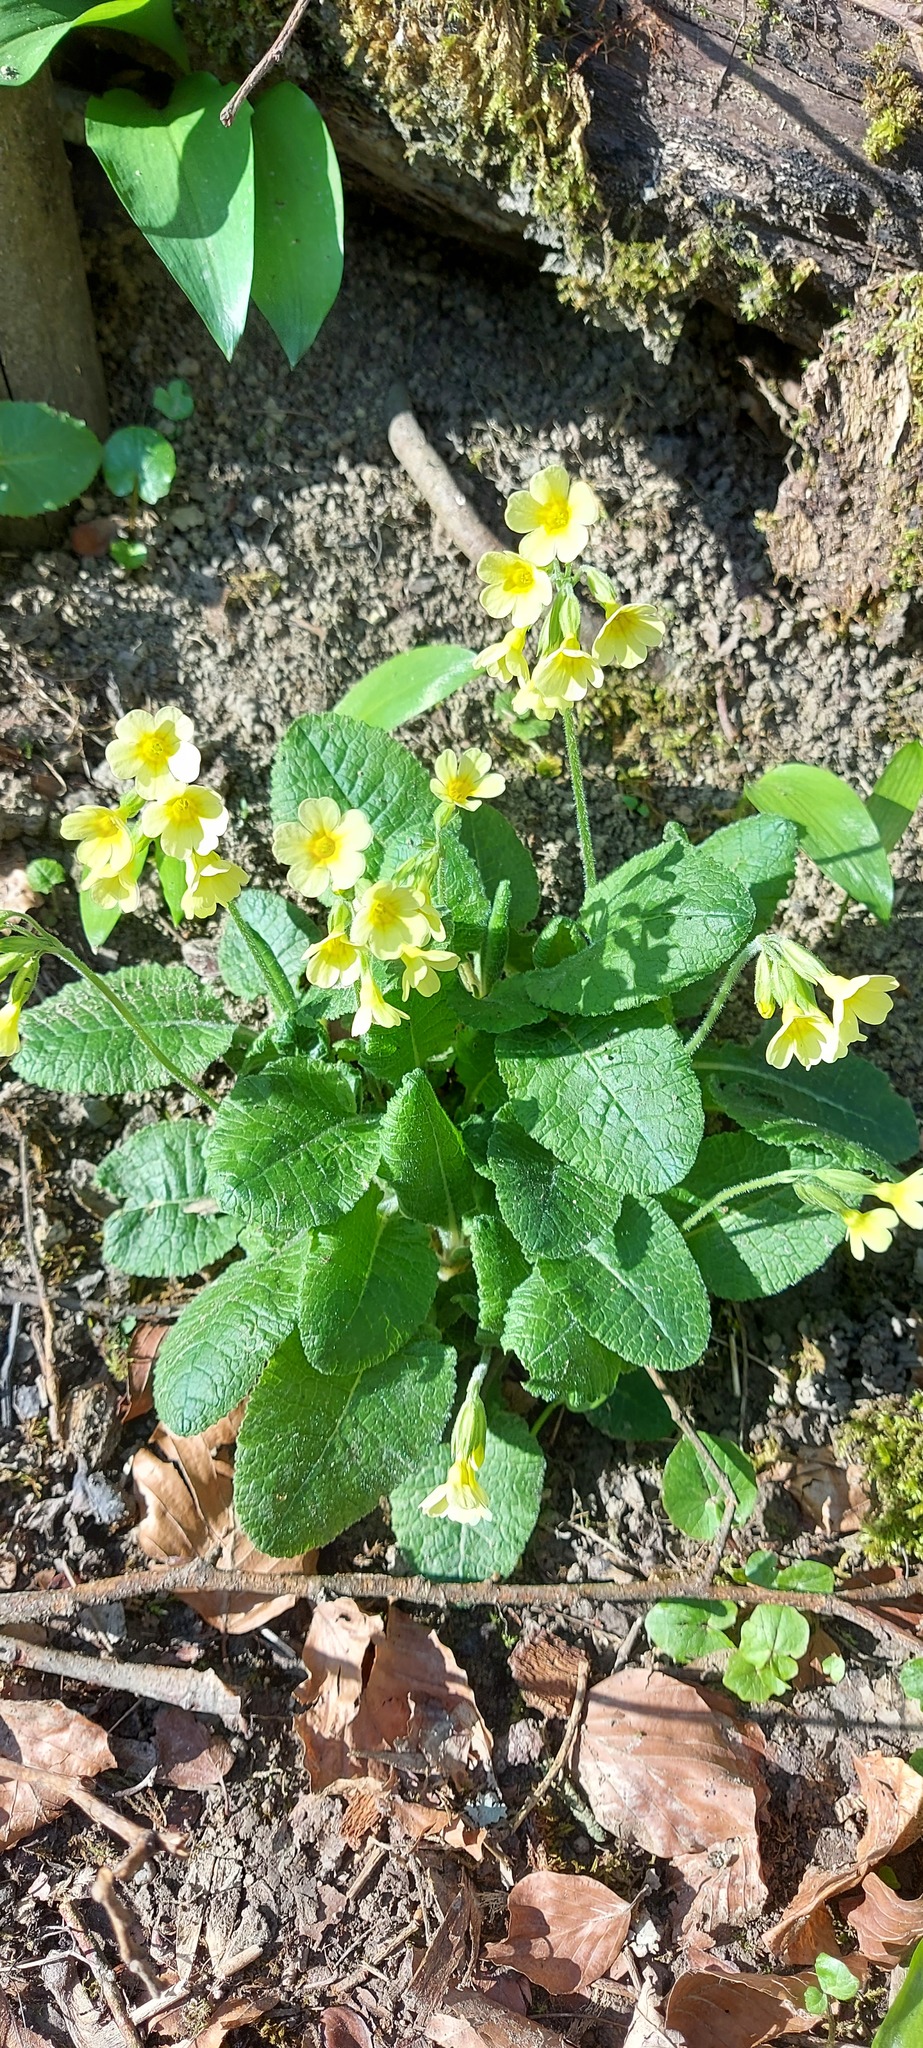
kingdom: Plantae
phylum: Tracheophyta
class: Magnoliopsida
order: Ericales
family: Primulaceae
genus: Primula
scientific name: Primula elatior
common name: Oxlip
